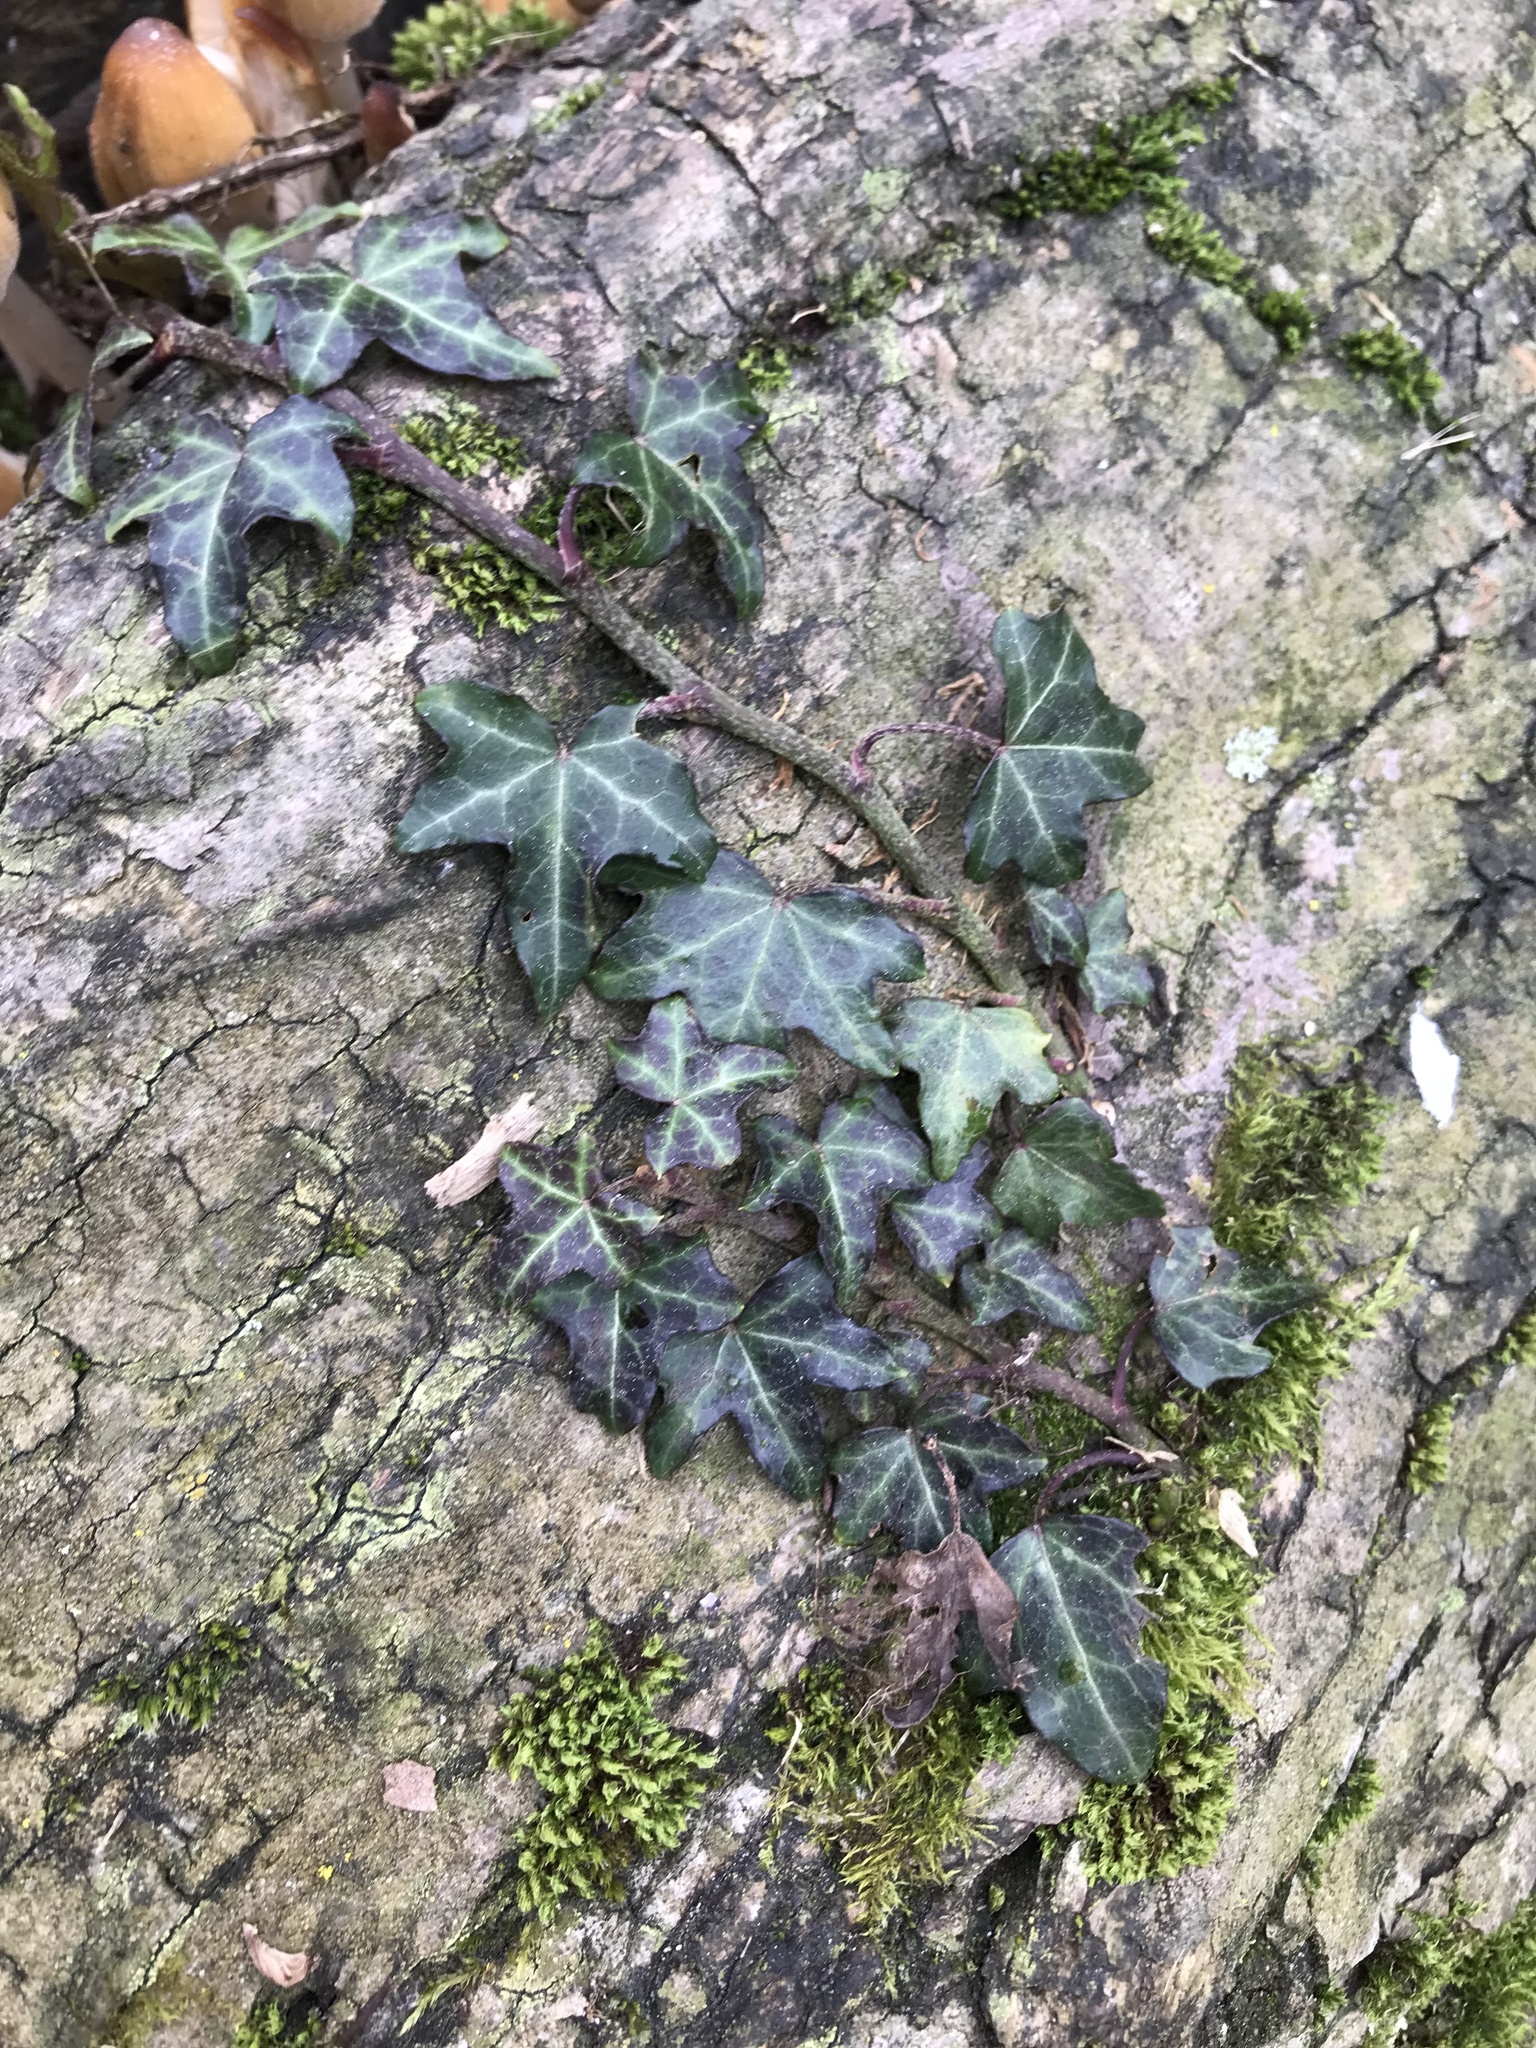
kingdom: Plantae
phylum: Tracheophyta
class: Magnoliopsida
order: Apiales
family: Araliaceae
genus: Hedera
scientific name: Hedera helix
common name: Ivy
